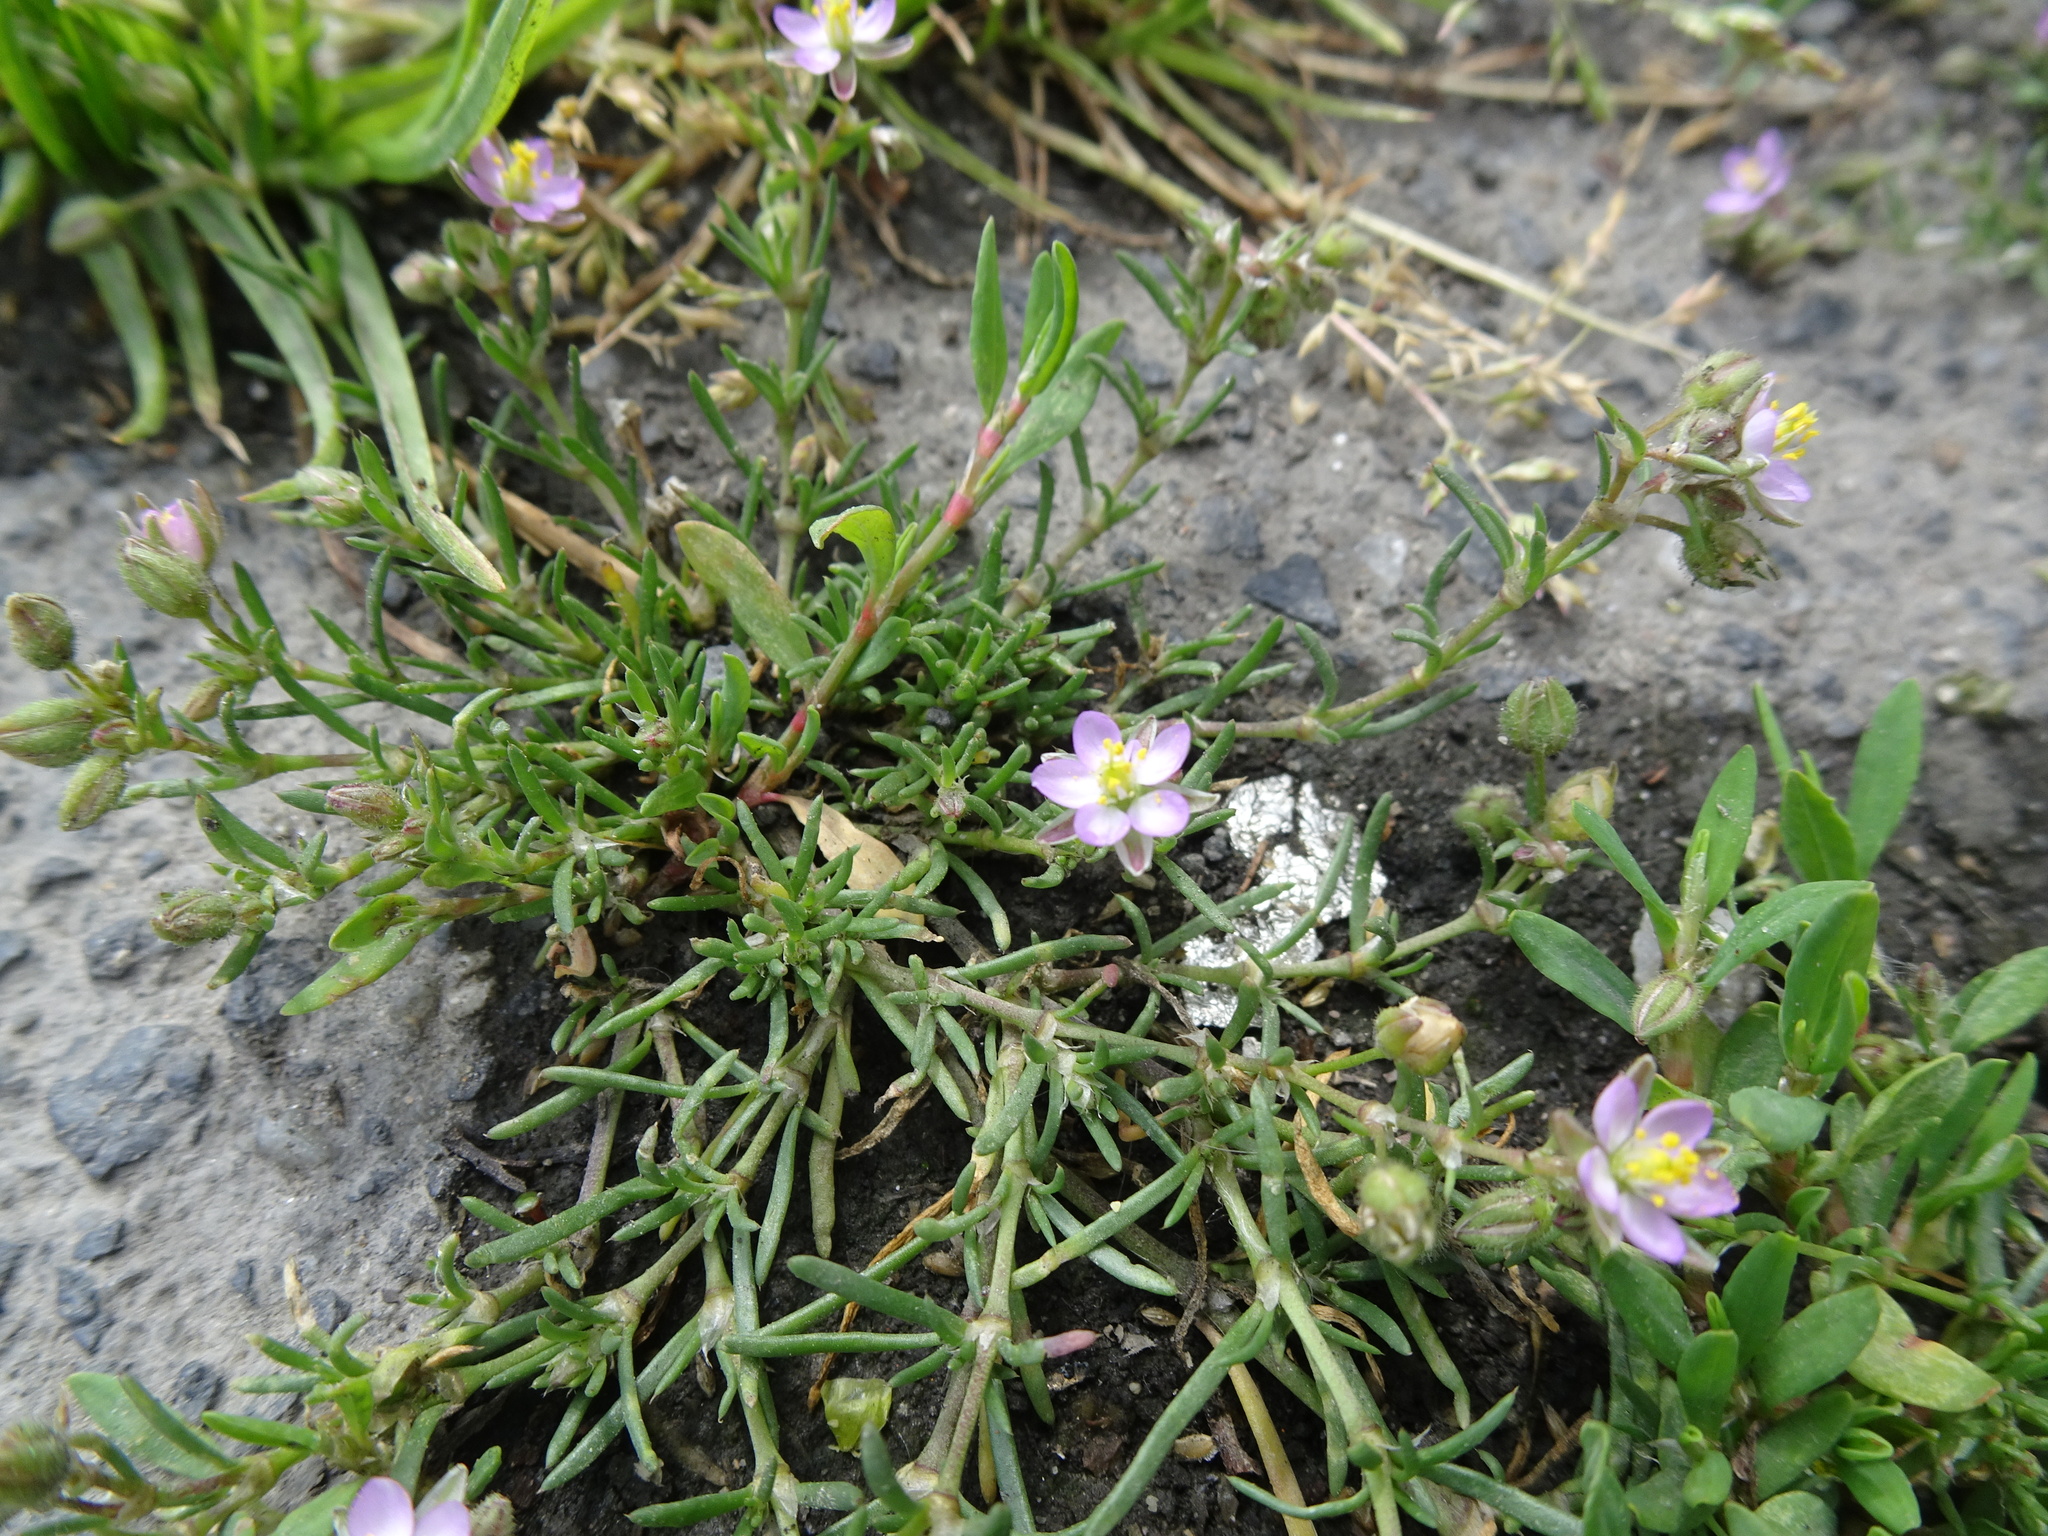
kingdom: Plantae
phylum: Tracheophyta
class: Magnoliopsida
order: Caryophyllales
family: Caryophyllaceae
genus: Spergularia
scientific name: Spergularia rubra
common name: Red sand-spurrey
